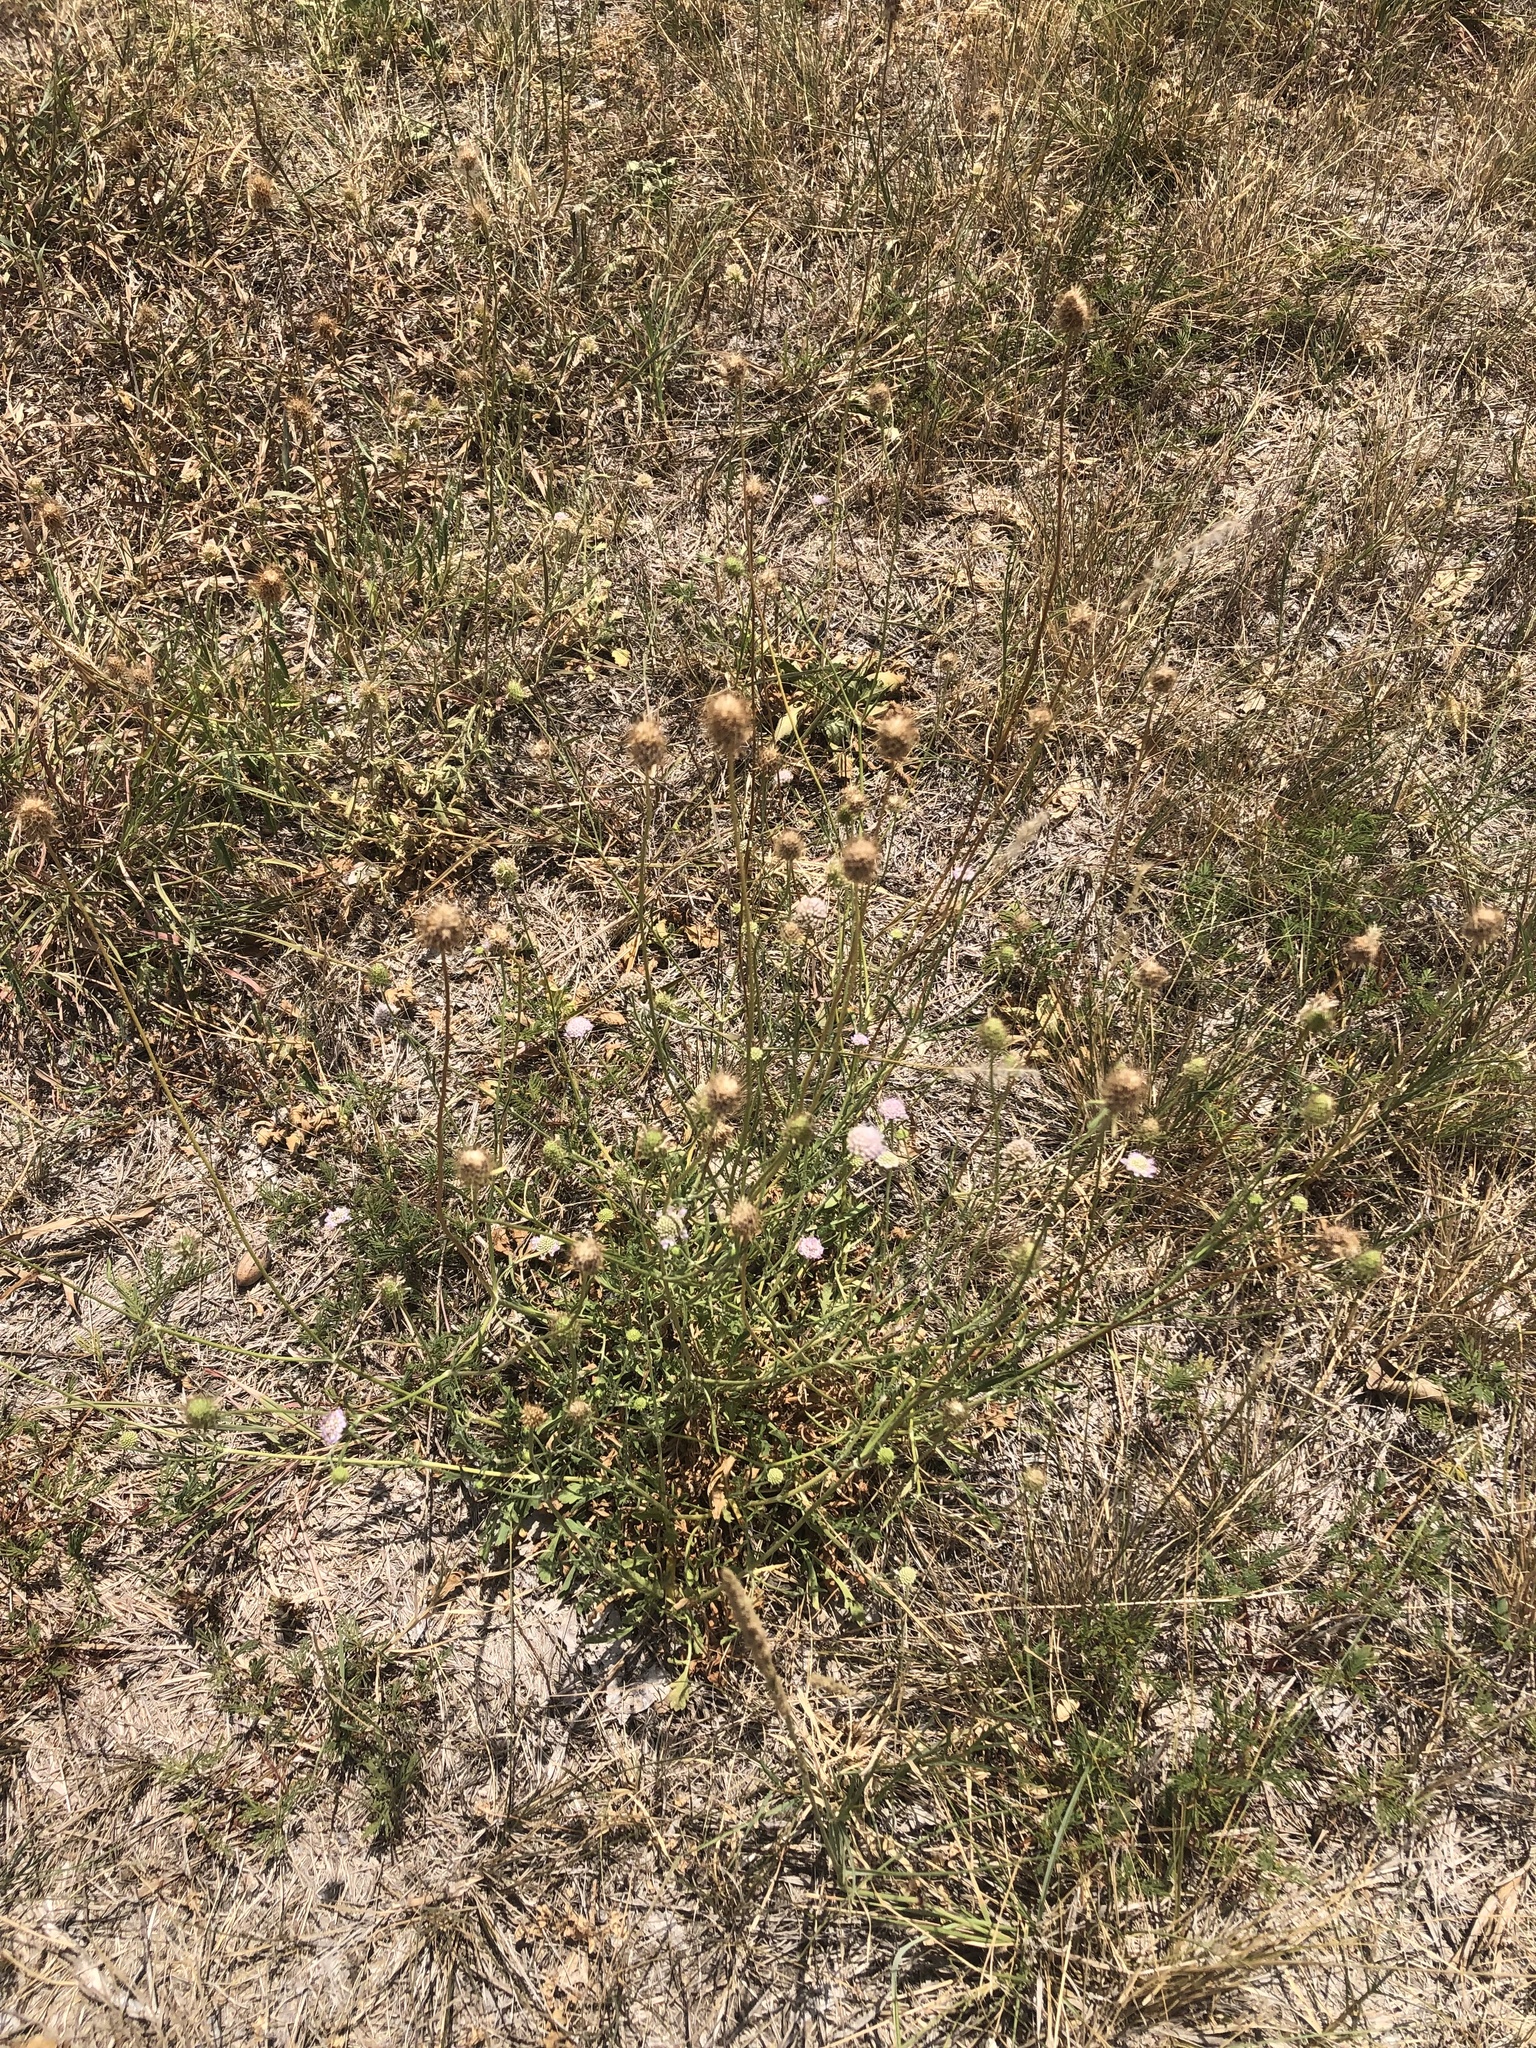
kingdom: Plantae
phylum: Tracheophyta
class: Magnoliopsida
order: Dipsacales
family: Caprifoliaceae
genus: Sixalix
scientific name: Sixalix atropurpurea
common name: Sweet scabious
